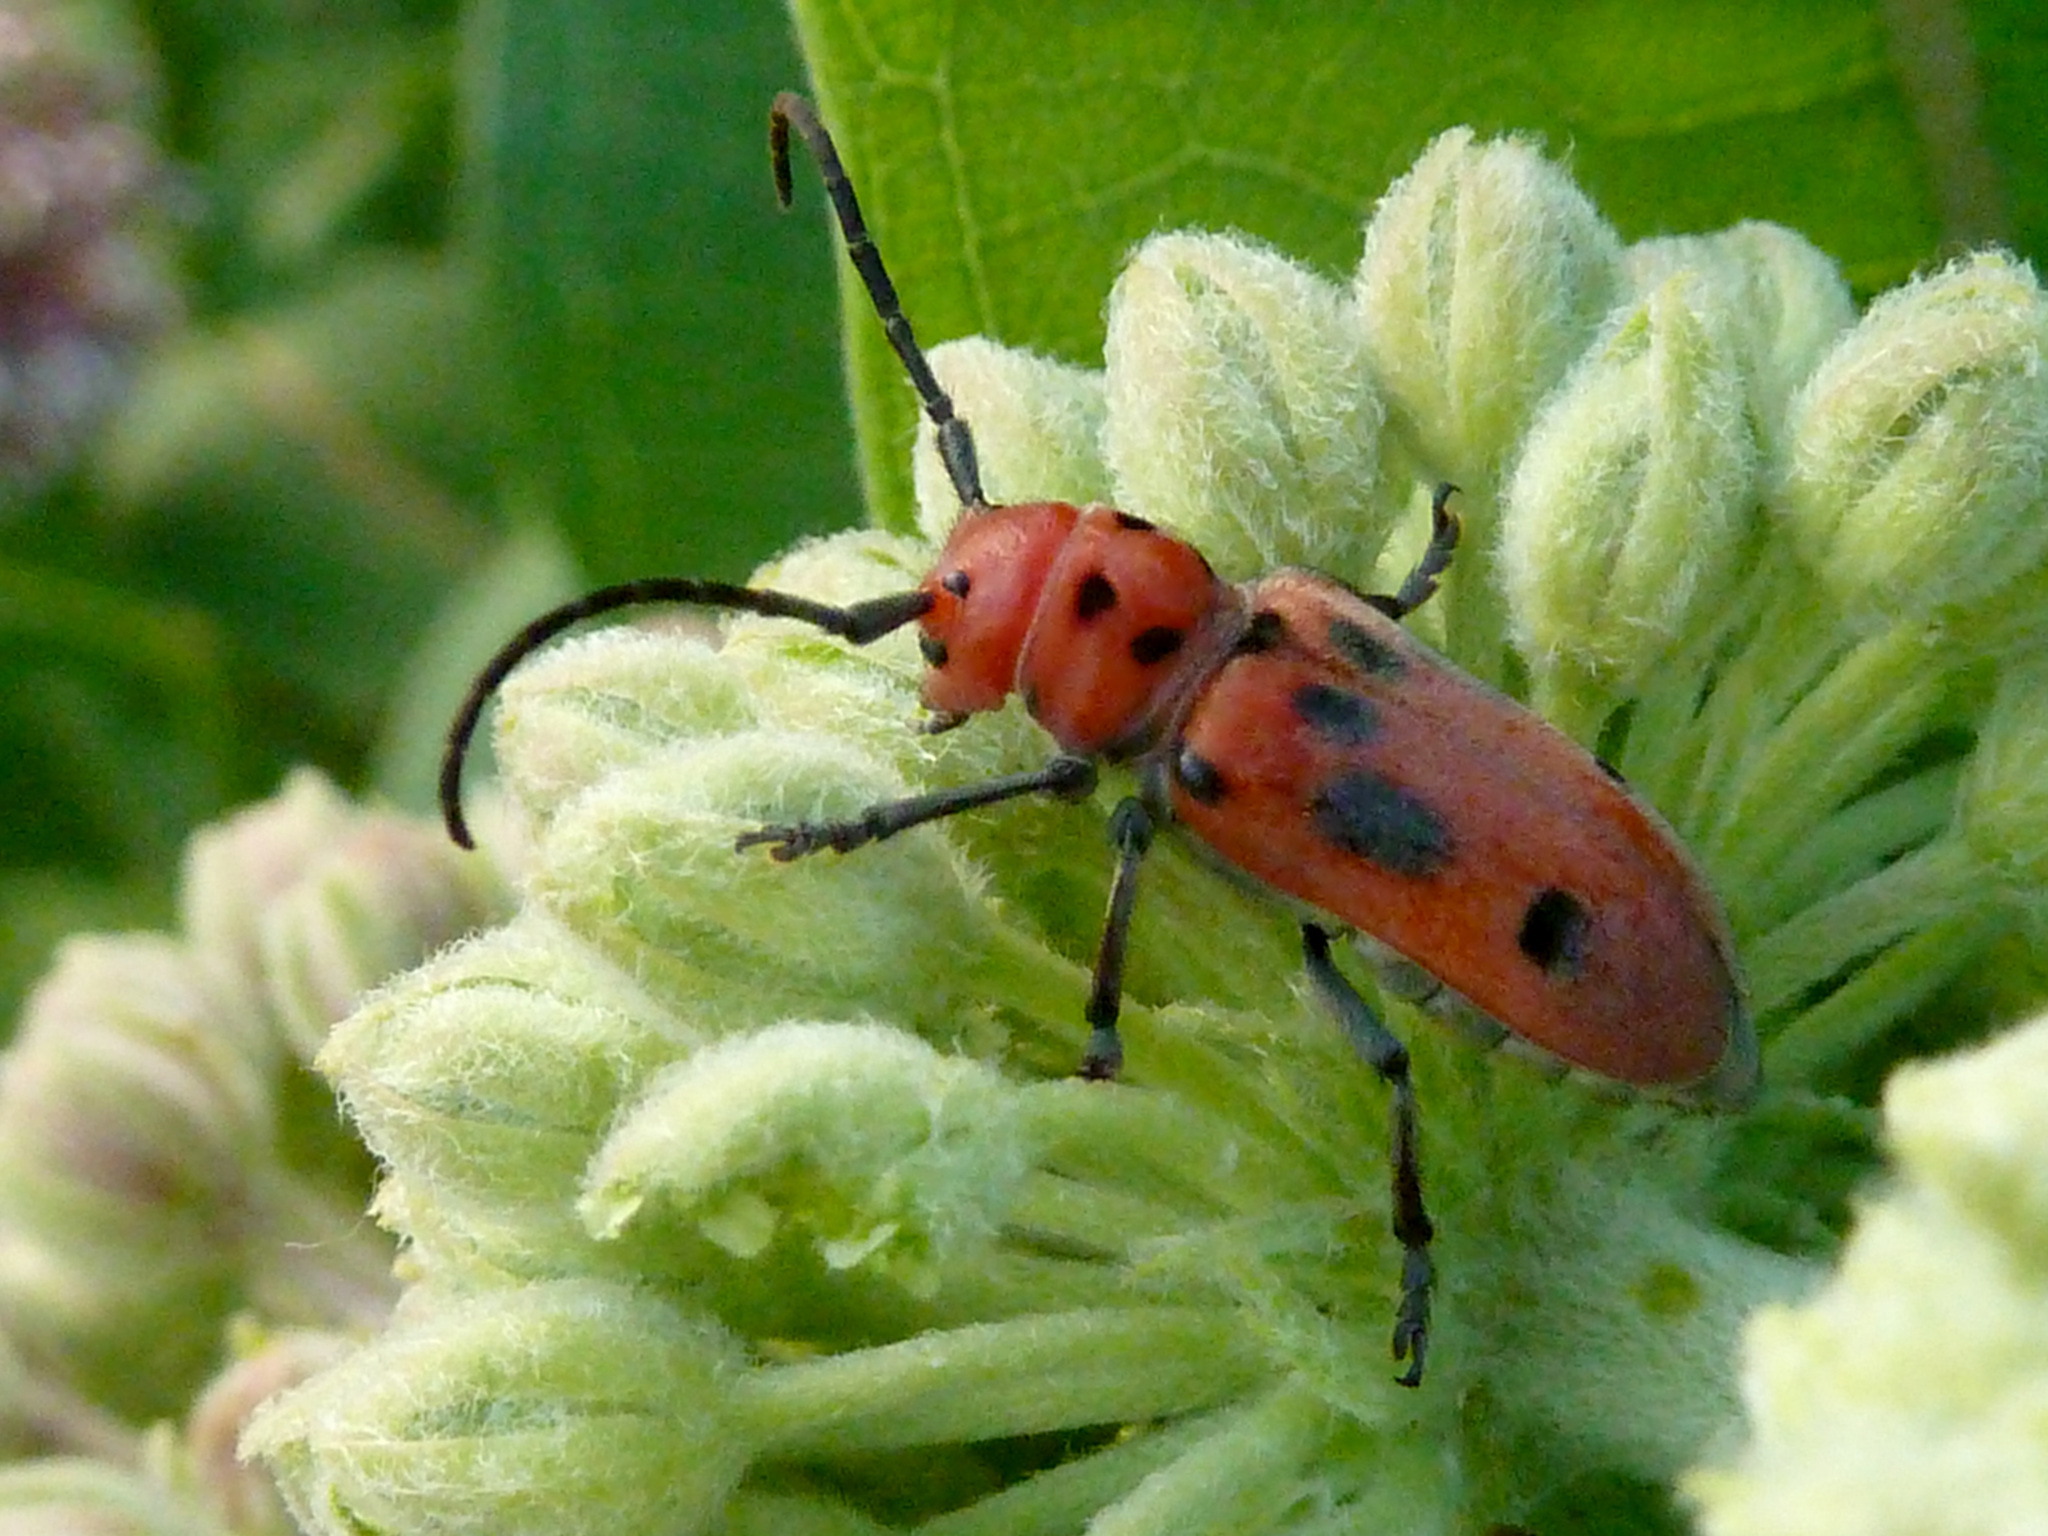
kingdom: Animalia
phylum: Arthropoda
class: Insecta
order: Coleoptera
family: Cerambycidae
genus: Tetraopes
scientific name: Tetraopes tetrophthalmus
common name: Red milkweed beetle
